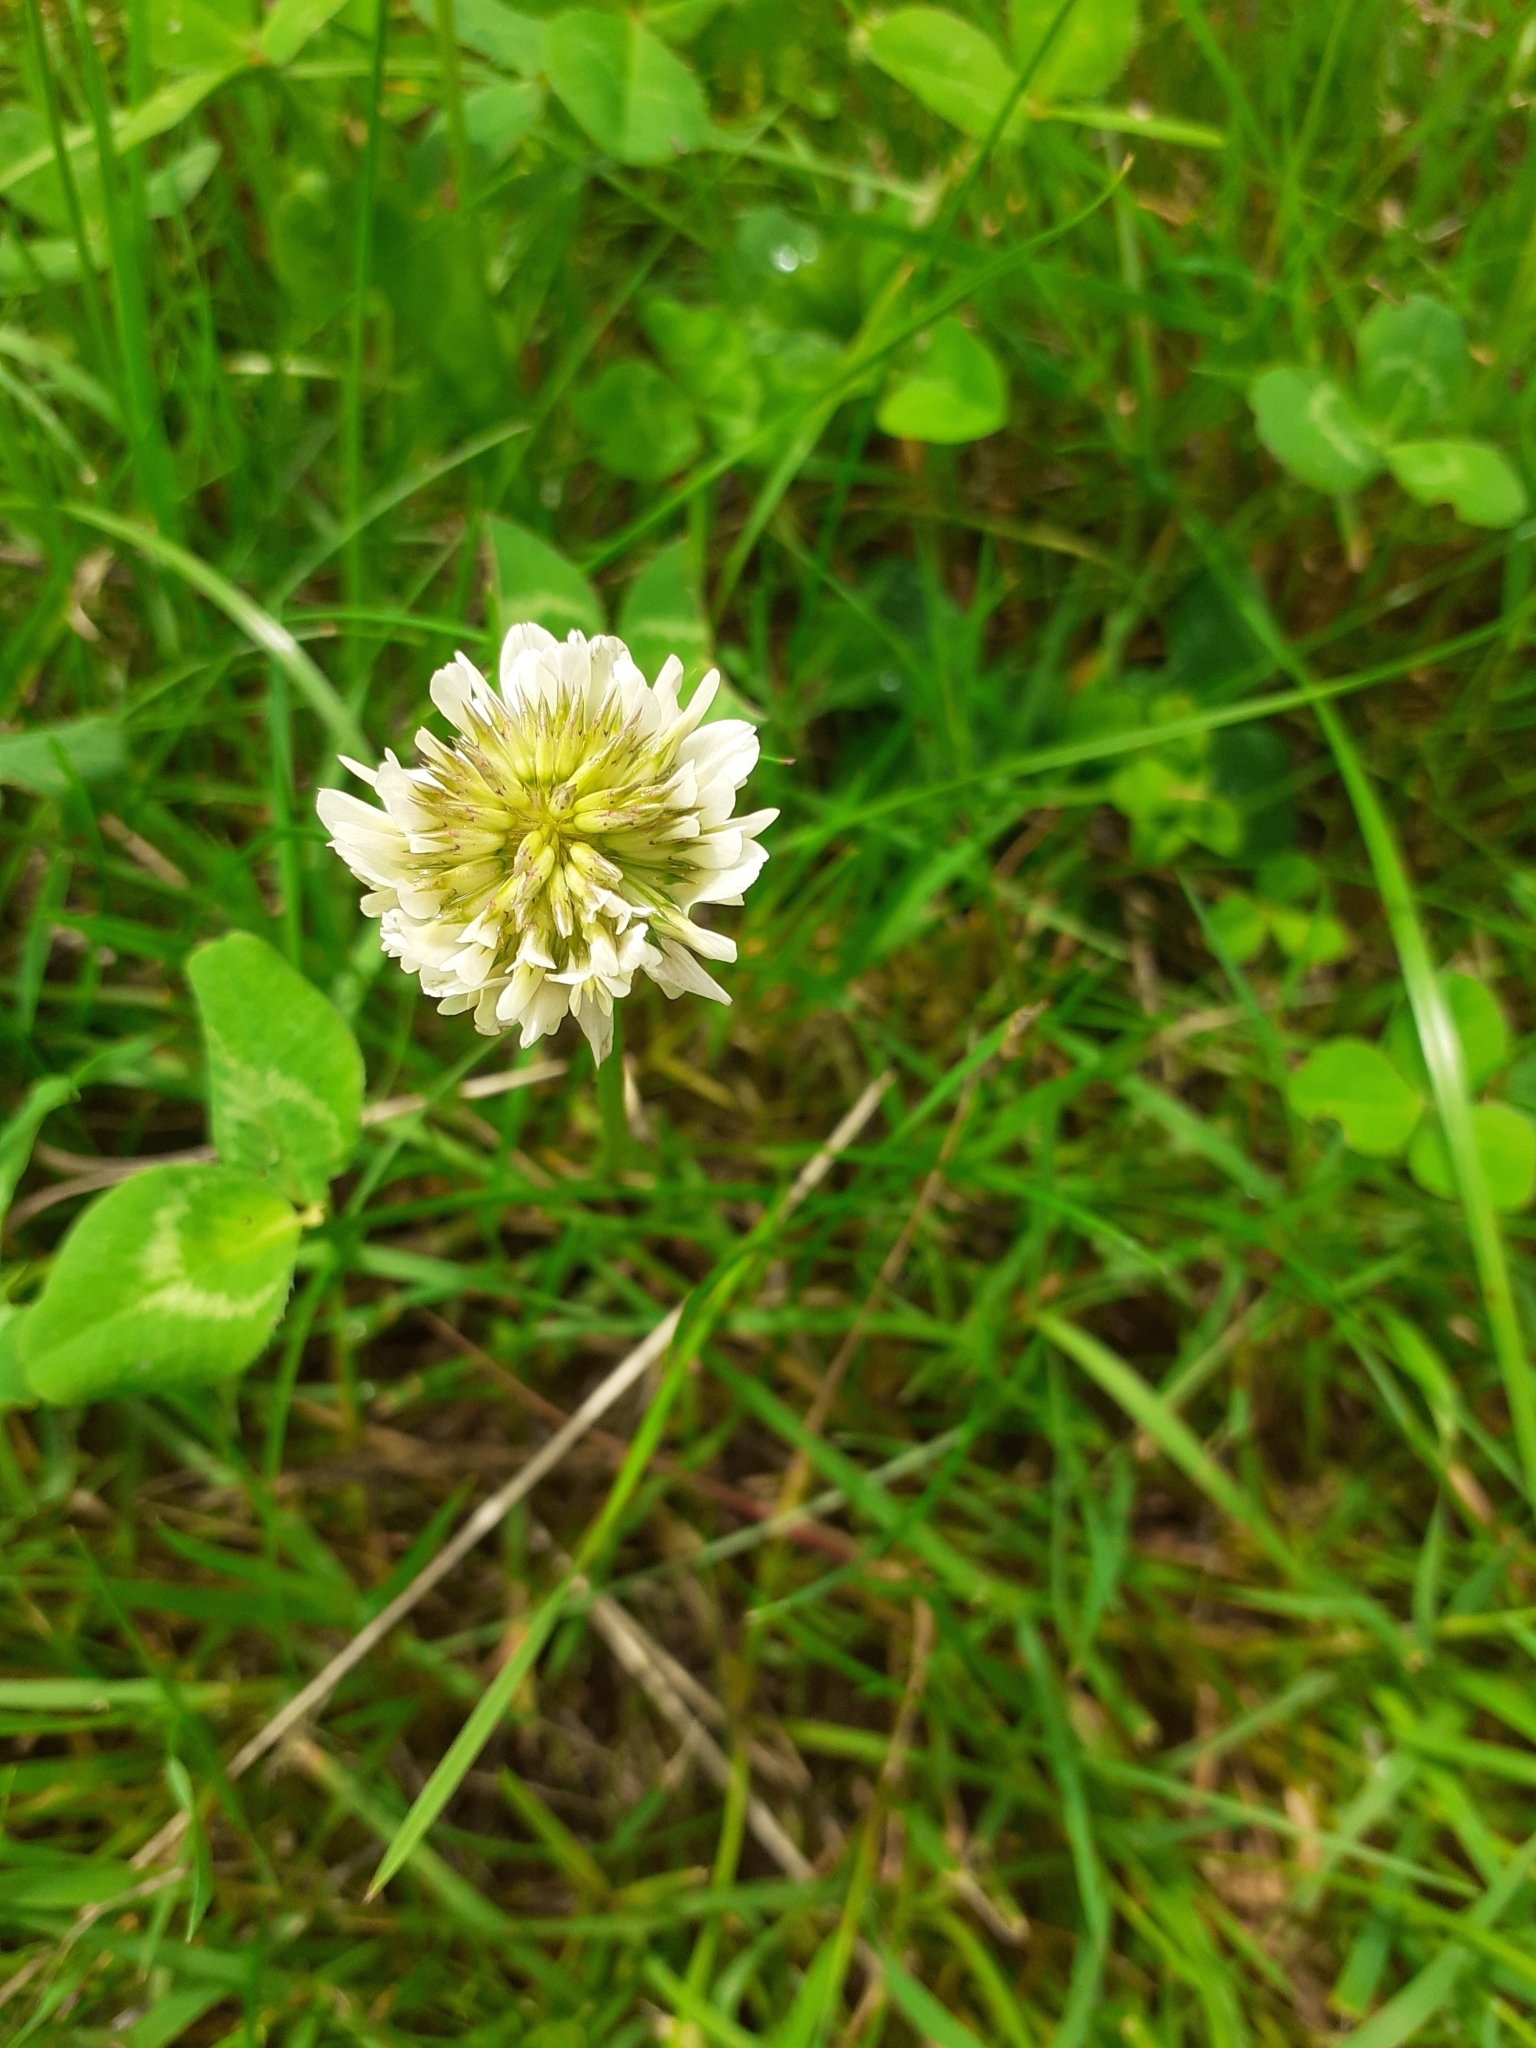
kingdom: Plantae
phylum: Tracheophyta
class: Magnoliopsida
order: Fabales
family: Fabaceae
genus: Trifolium
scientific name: Trifolium repens
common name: White clover
